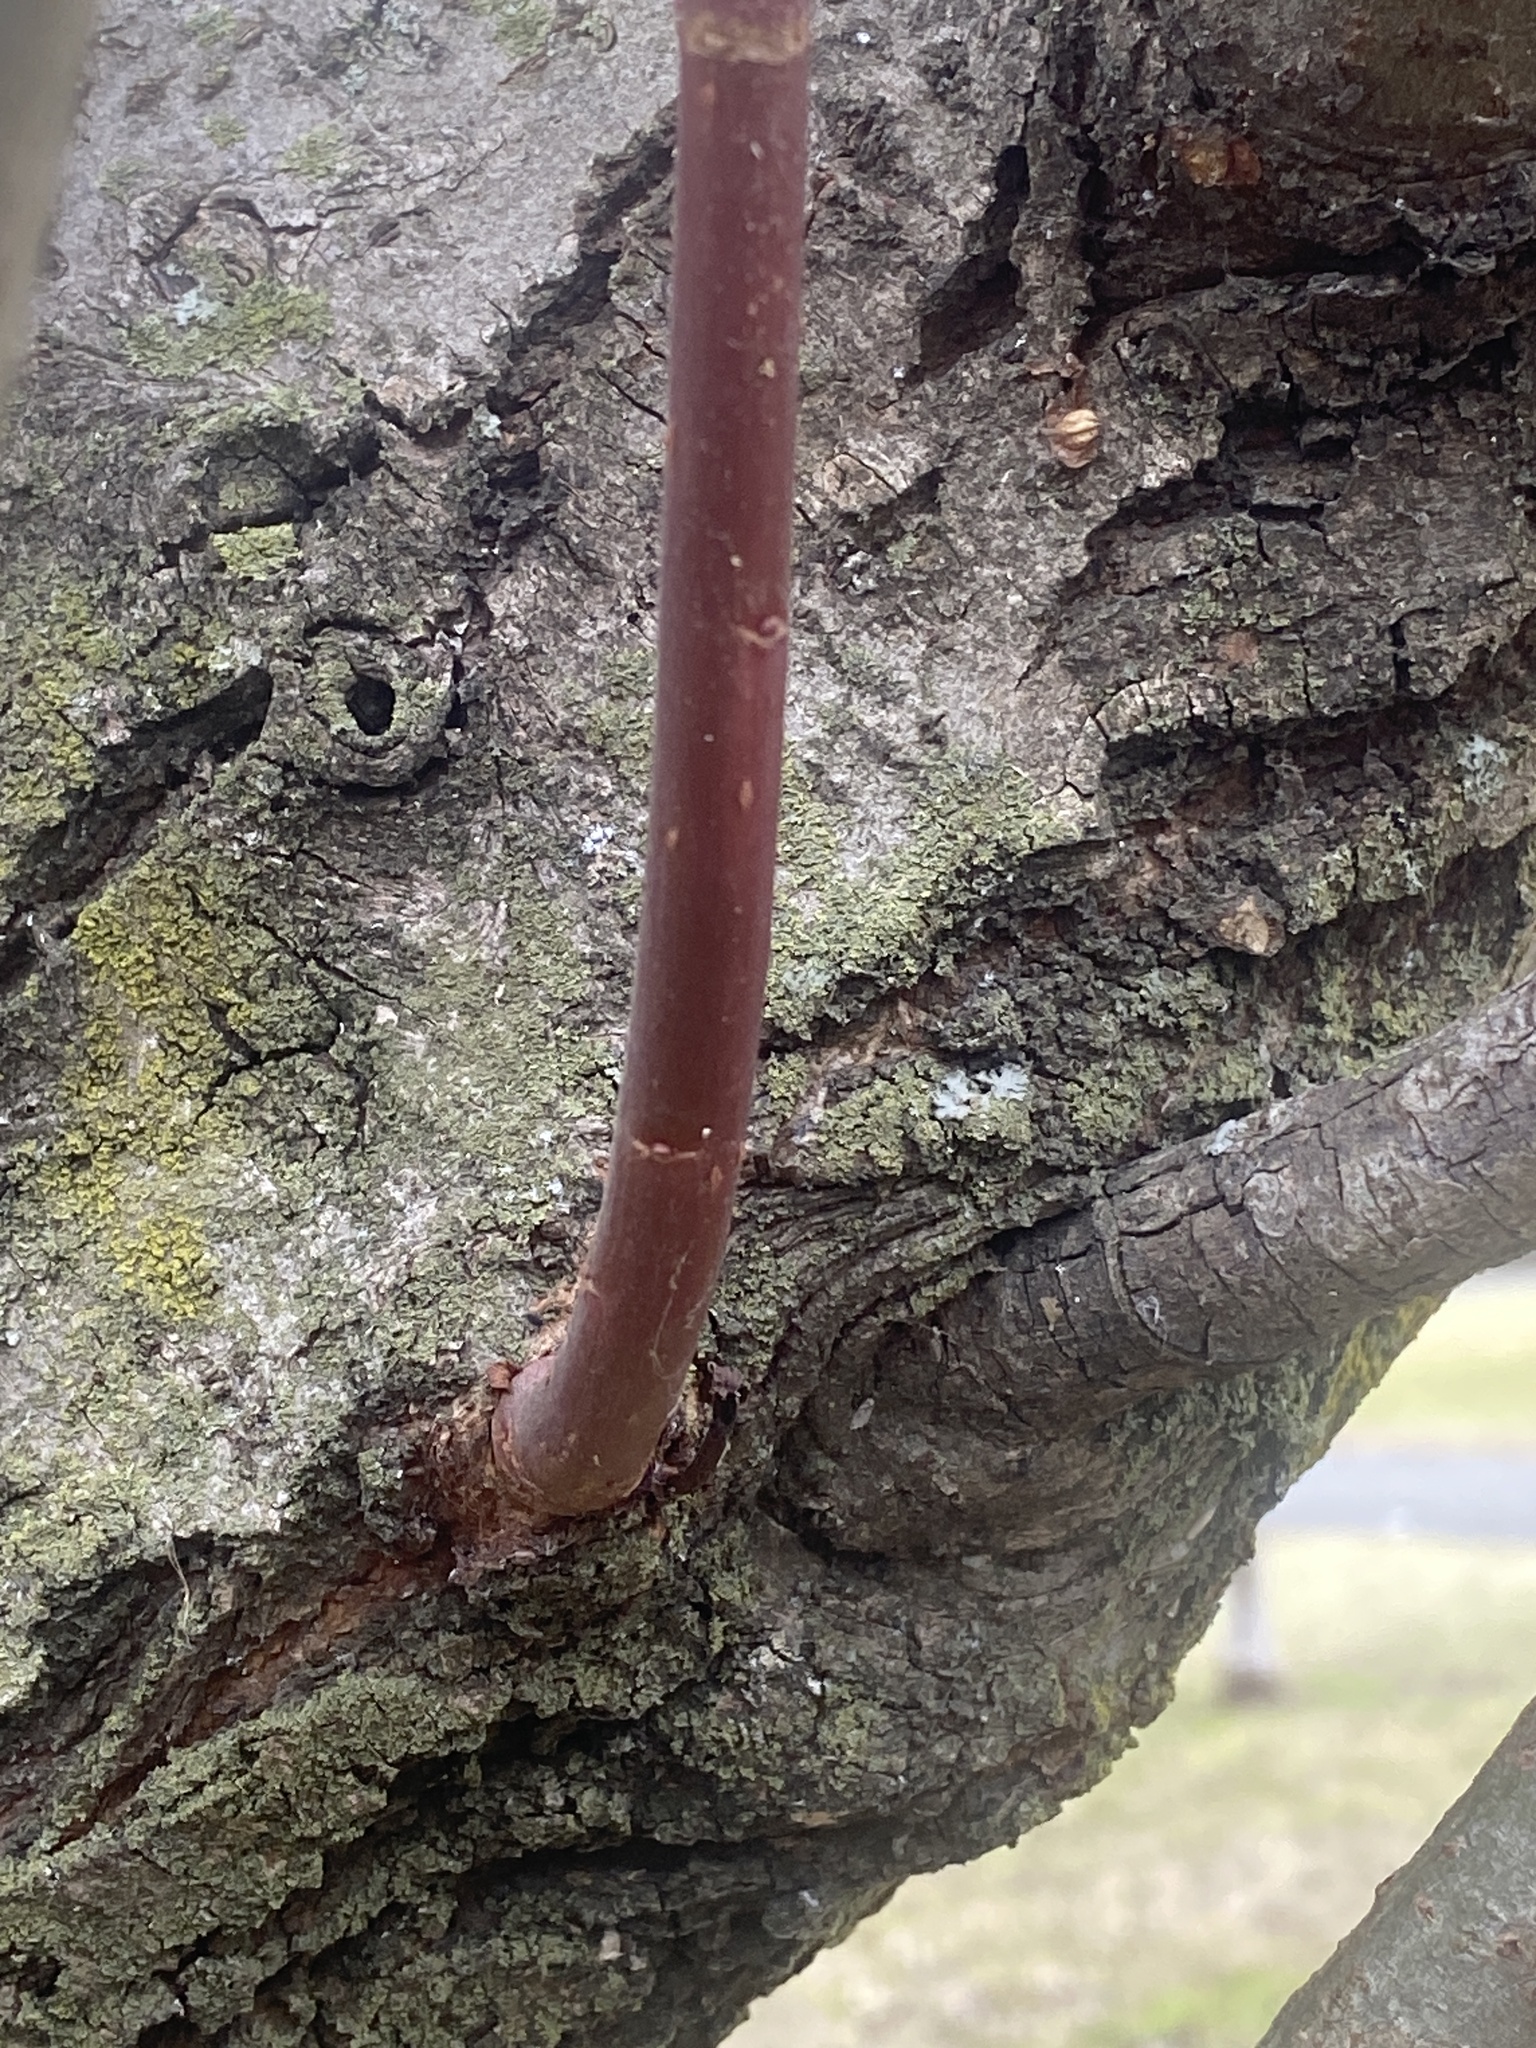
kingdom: Plantae
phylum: Tracheophyta
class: Magnoliopsida
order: Sapindales
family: Sapindaceae
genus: Acer
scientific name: Acer negundo
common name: Ashleaf maple
